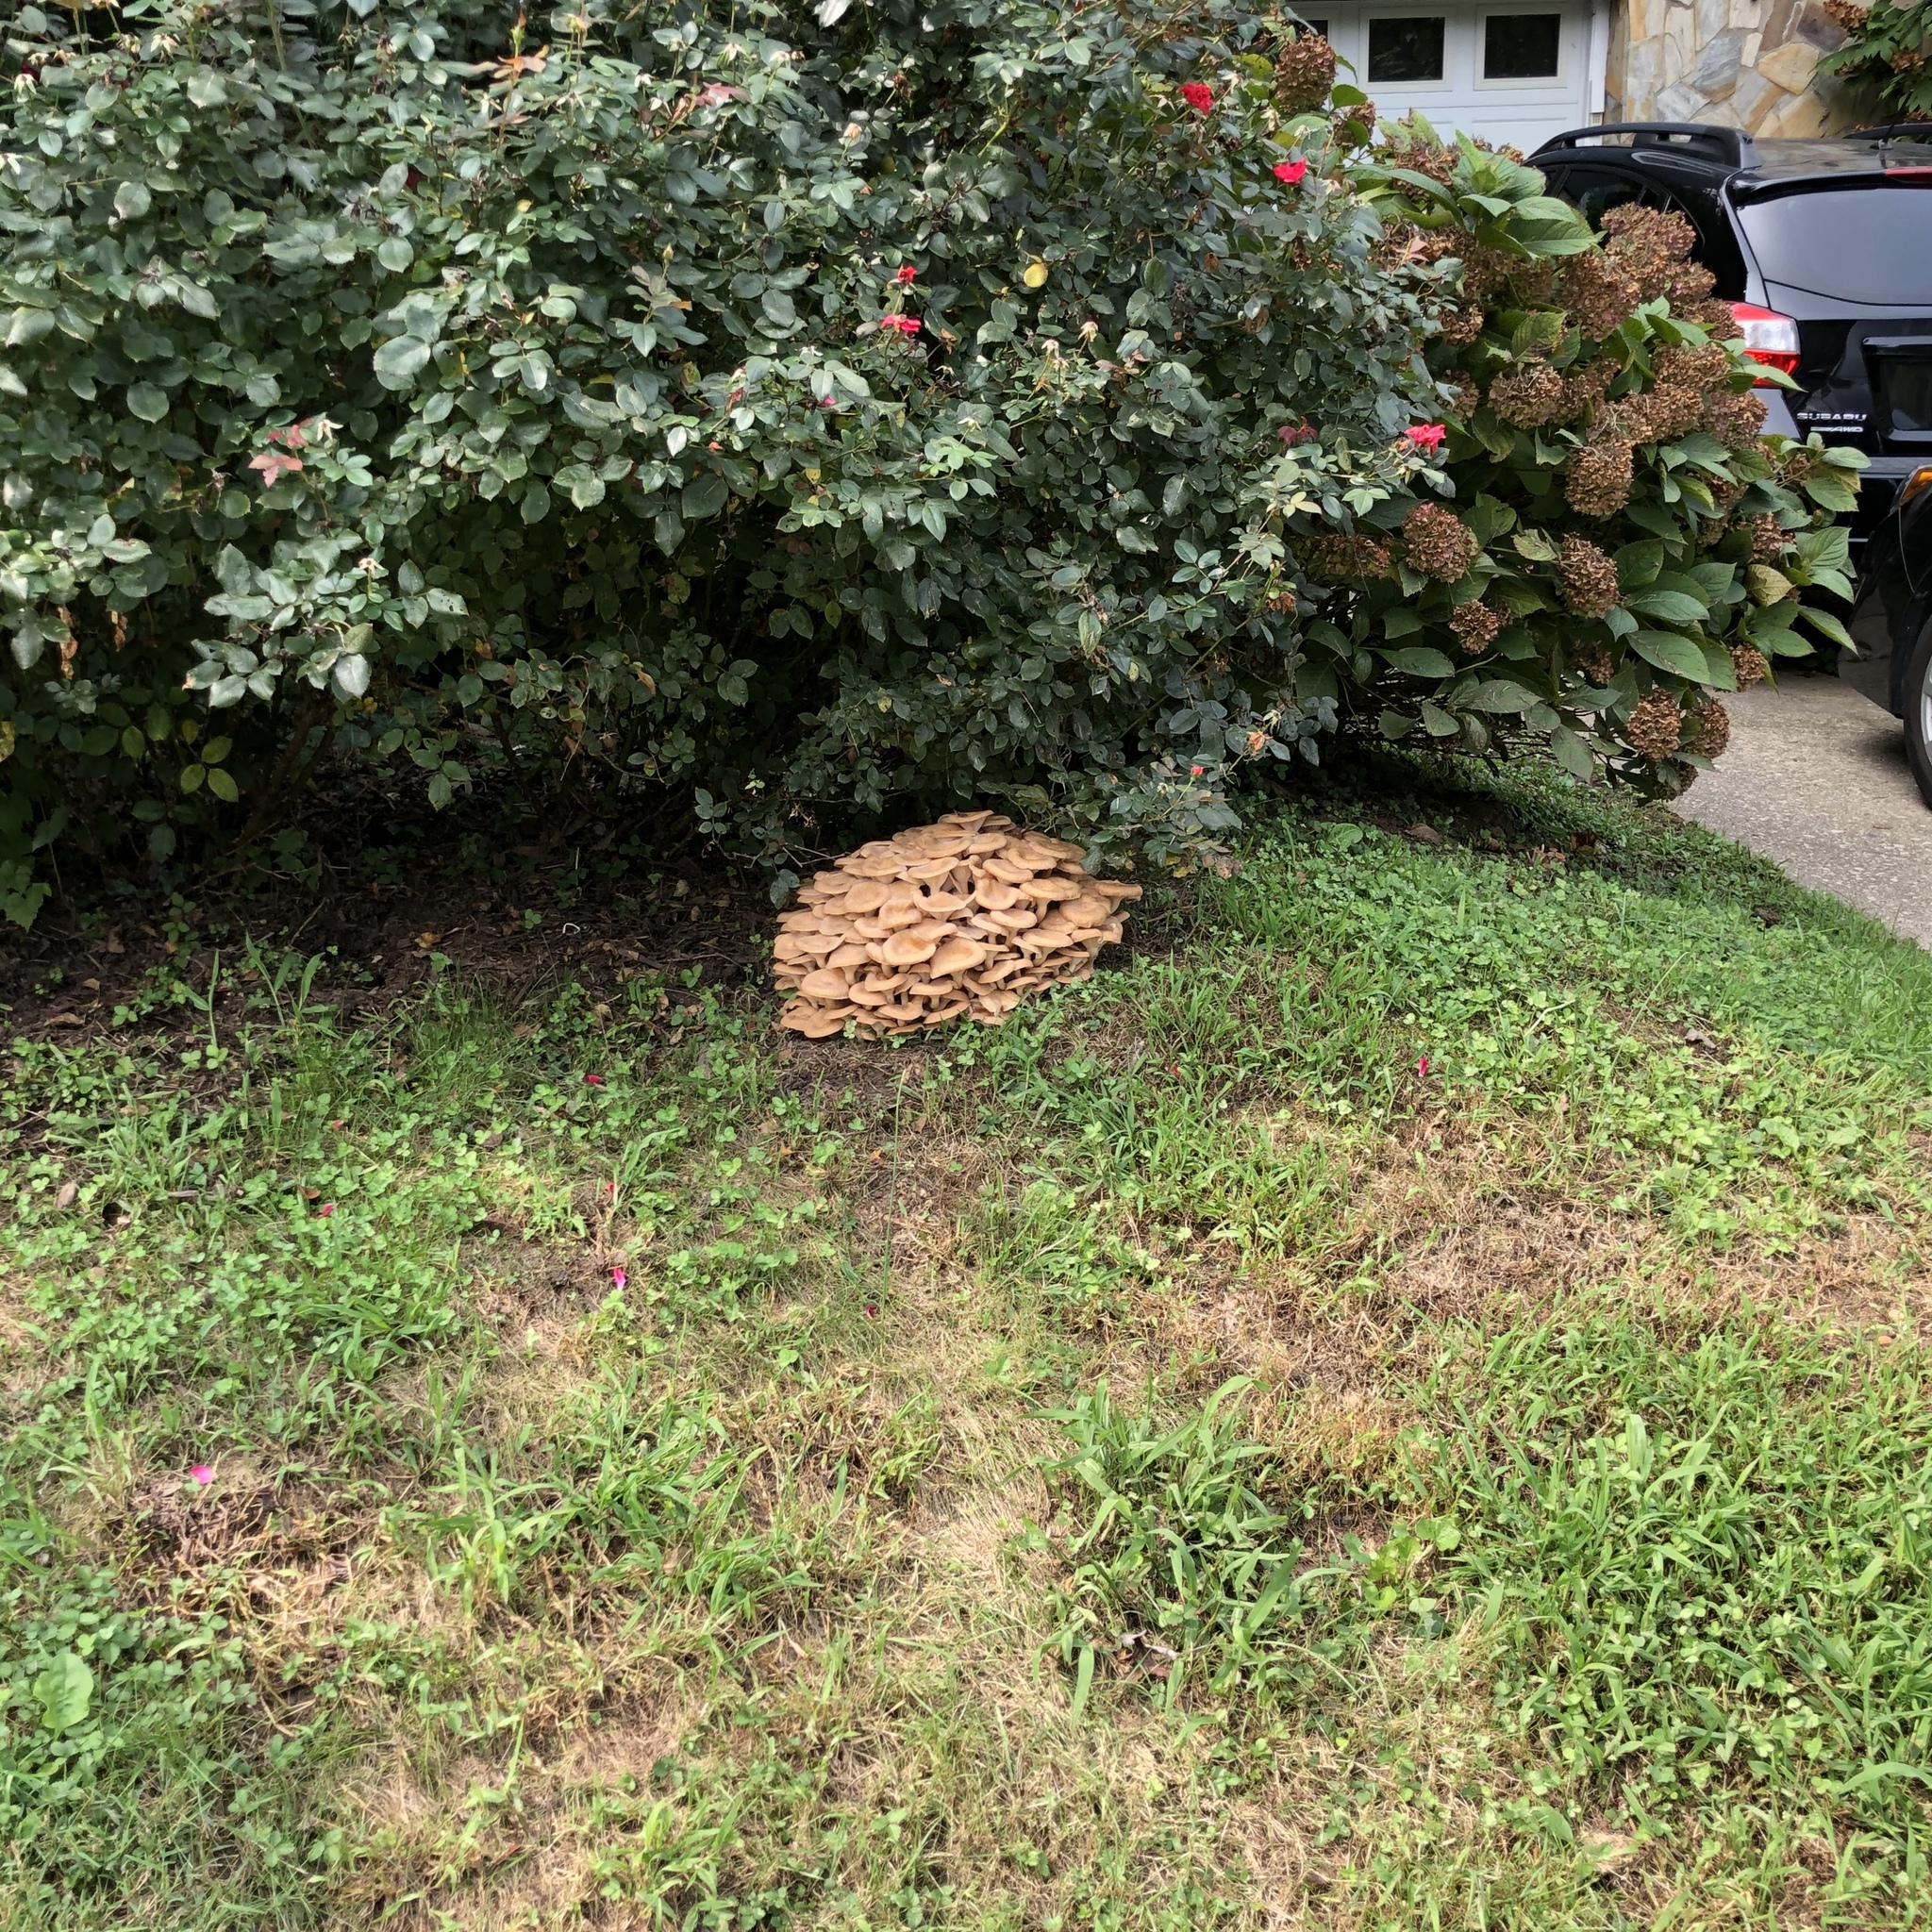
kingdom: Fungi
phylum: Basidiomycota
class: Agaricomycetes
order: Agaricales
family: Physalacriaceae
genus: Desarmillaria
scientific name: Desarmillaria caespitosa
